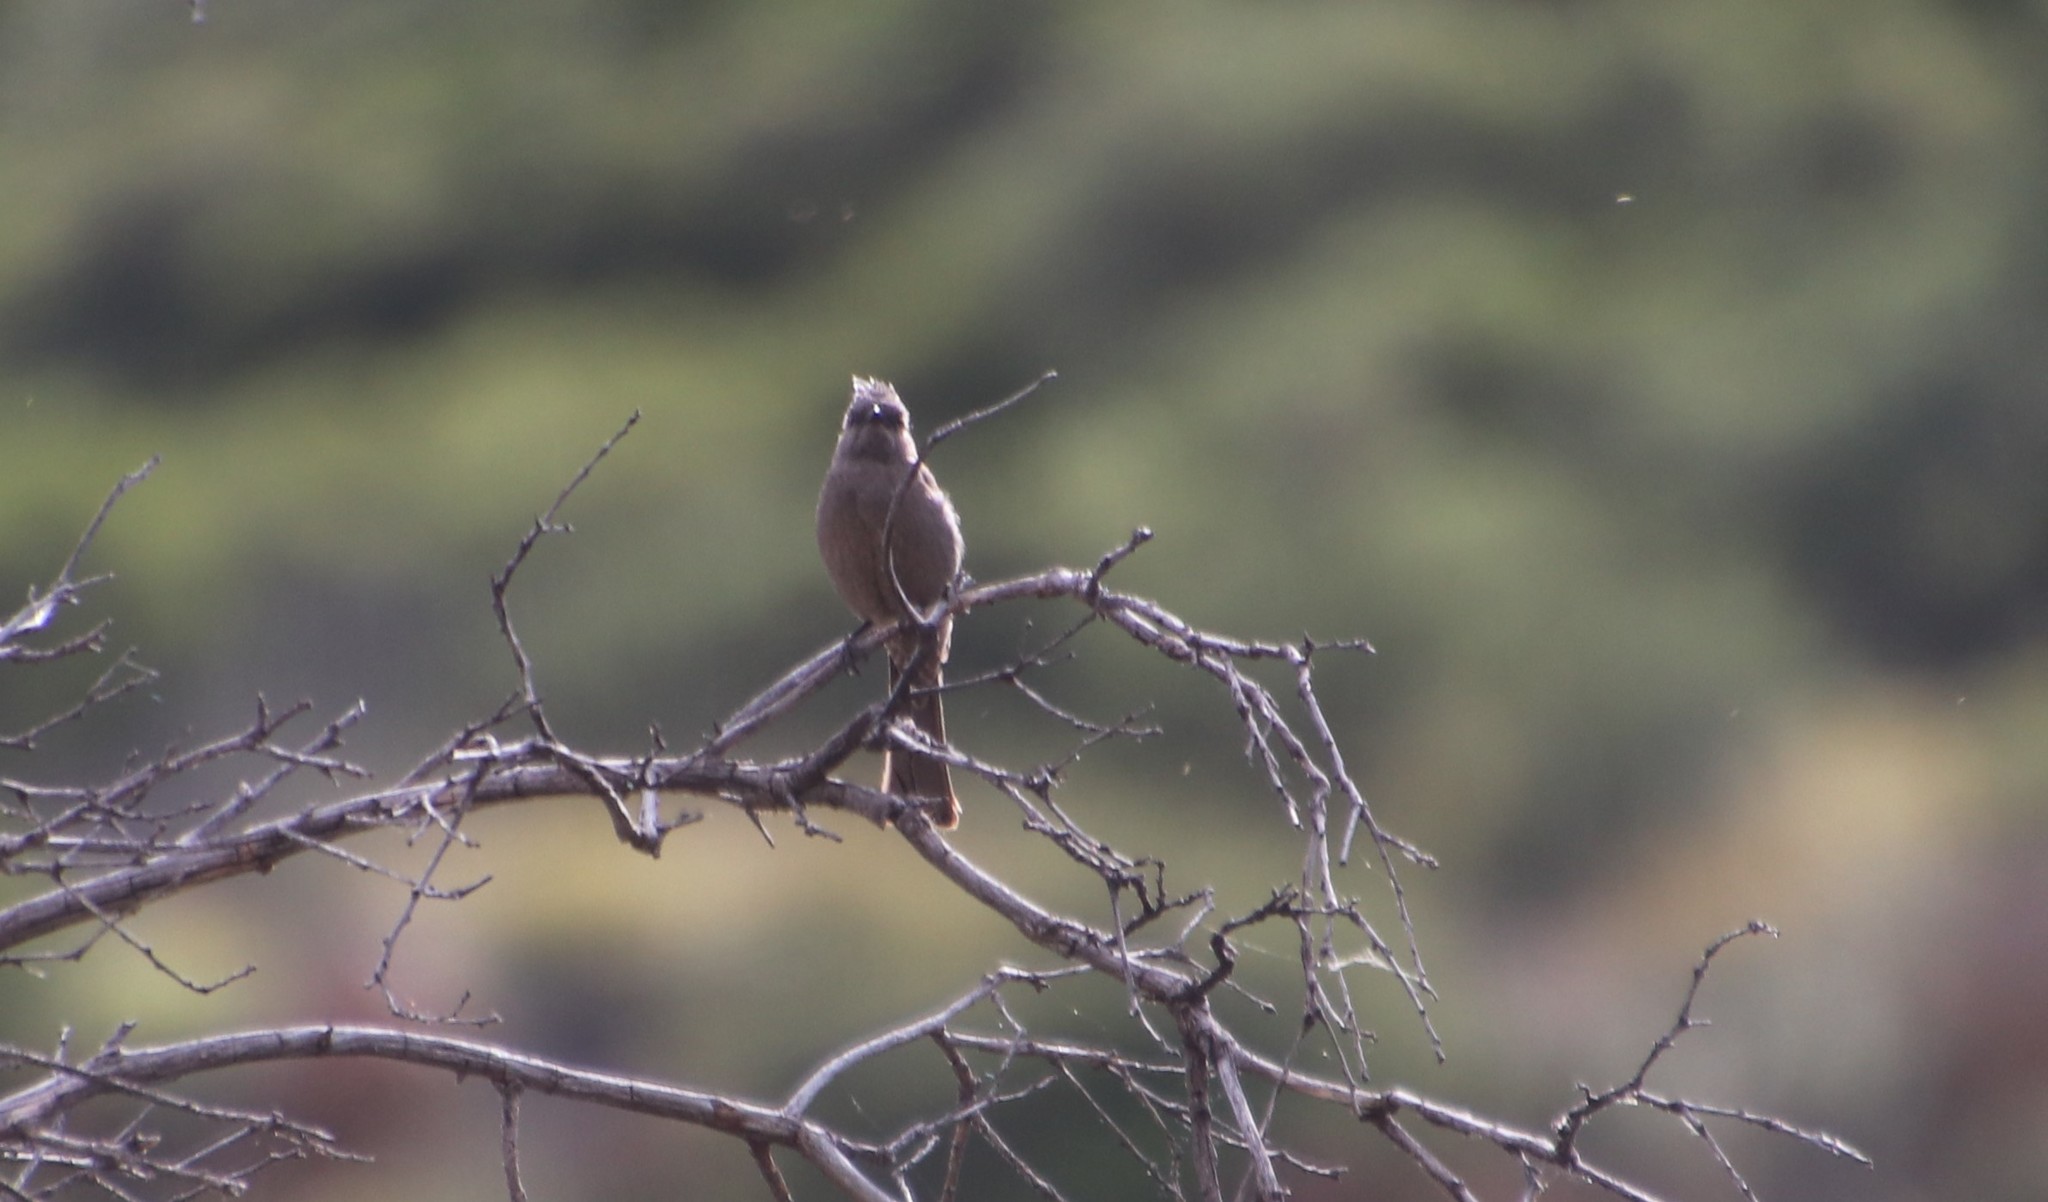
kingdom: Animalia
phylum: Chordata
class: Aves
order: Passeriformes
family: Ptilogonatidae
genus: Phainopepla
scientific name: Phainopepla nitens
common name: Phainopepla
